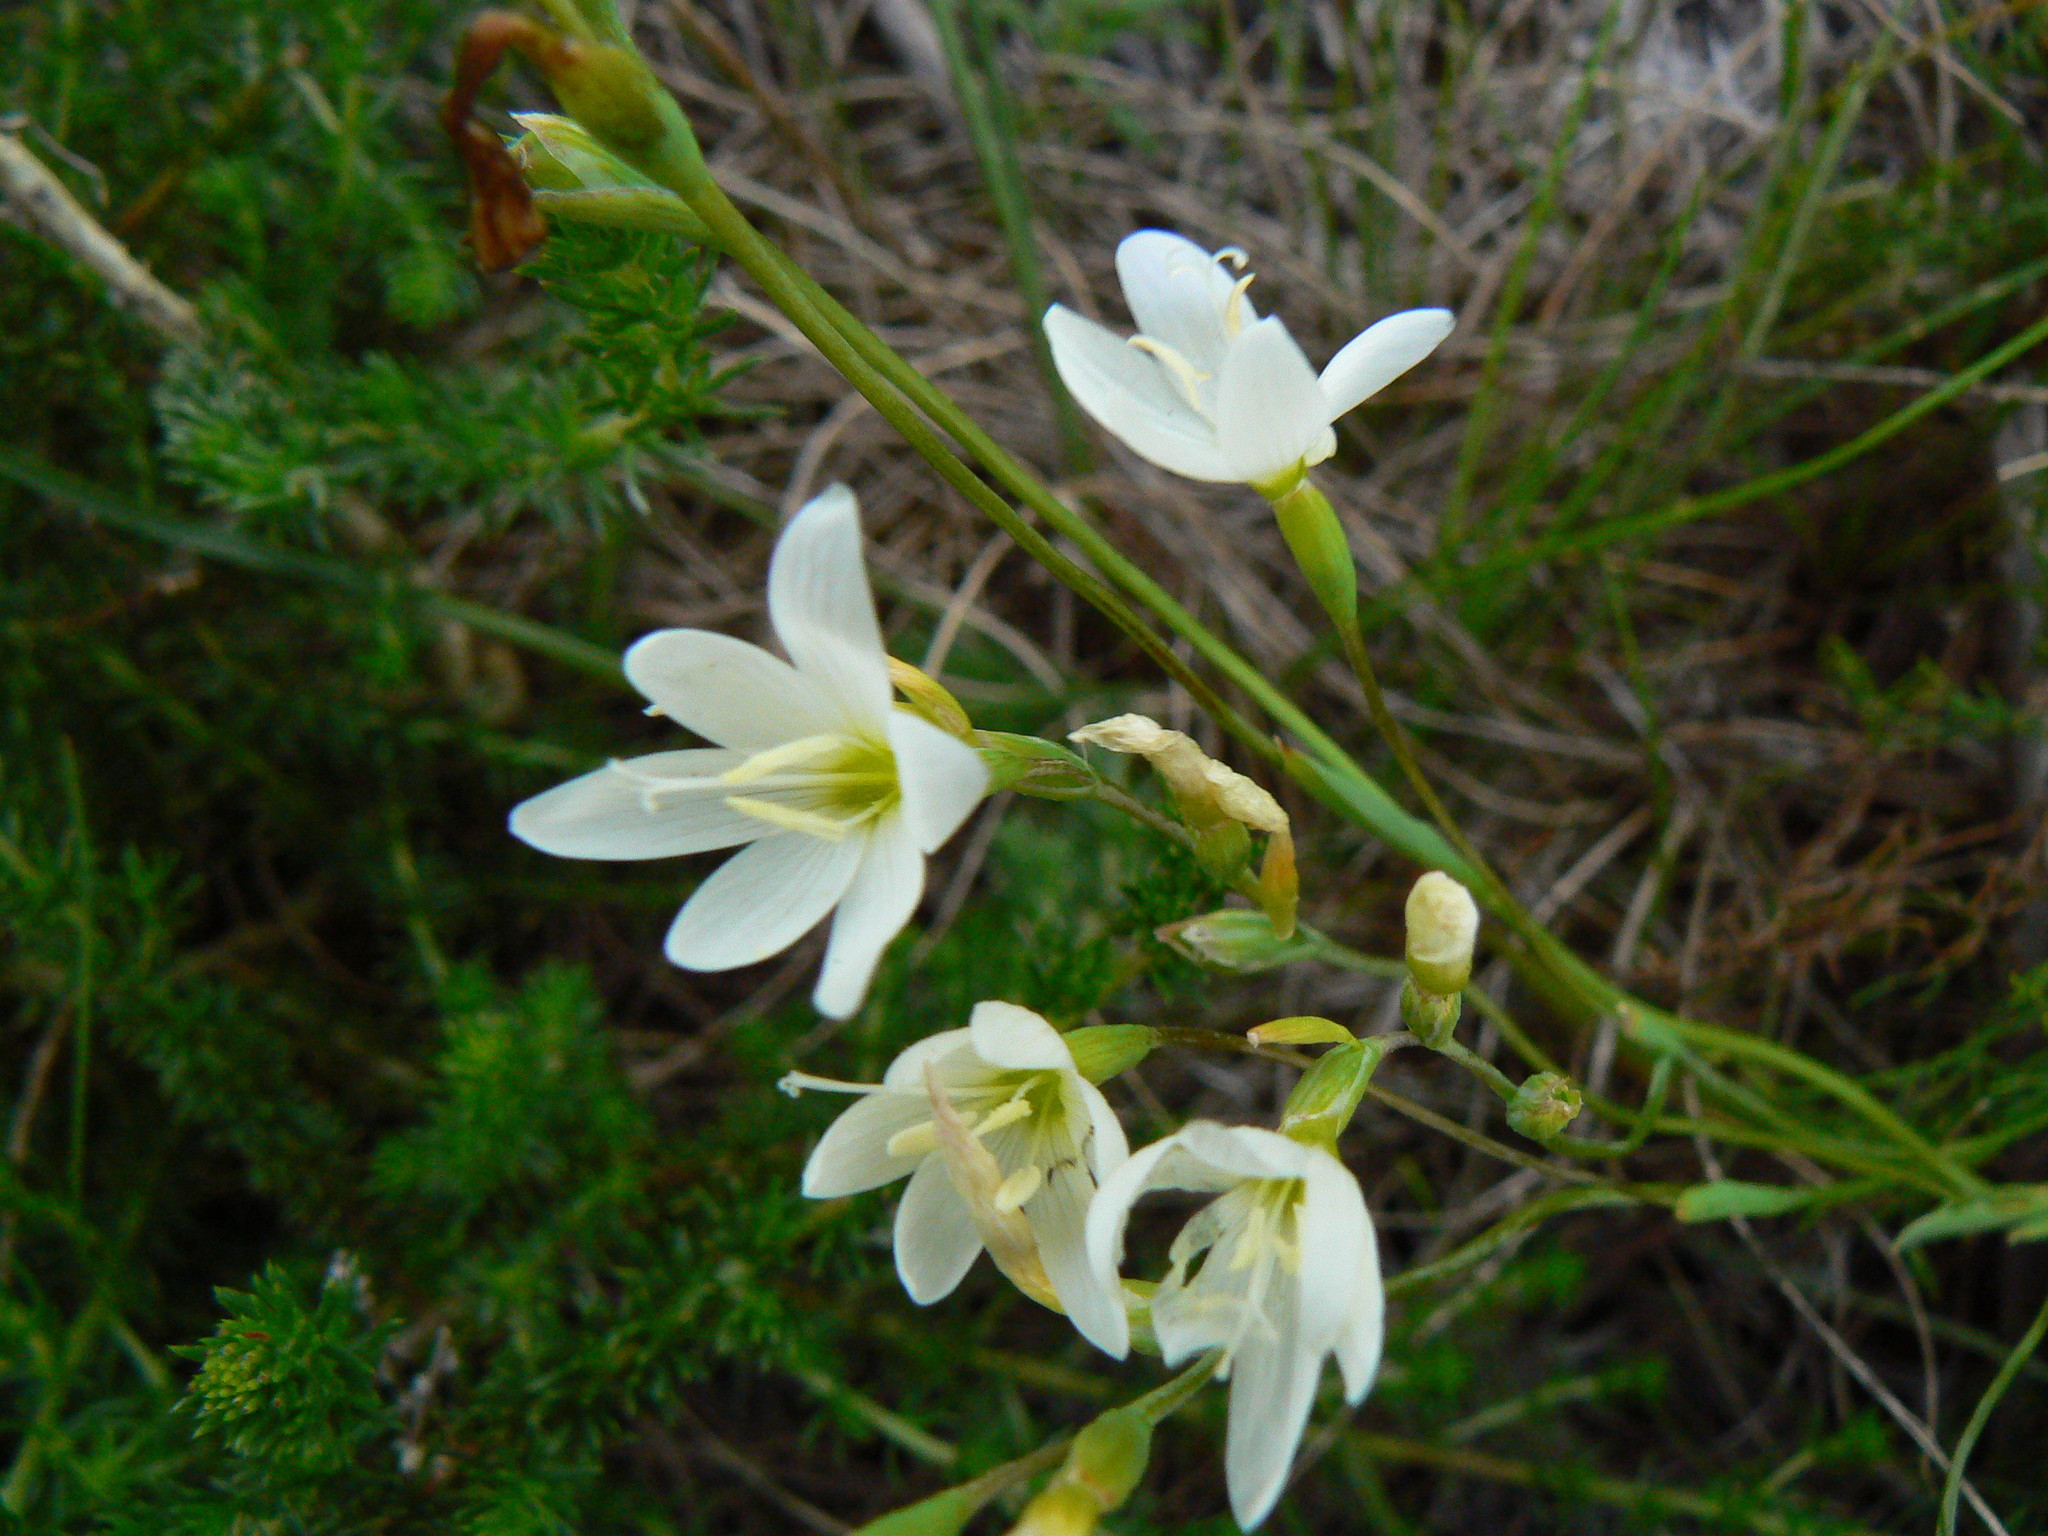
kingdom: Plantae
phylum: Tracheophyta
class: Liliopsida
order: Asparagales
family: Iridaceae
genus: Geissorhiza
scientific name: Geissorhiza inconspicua
